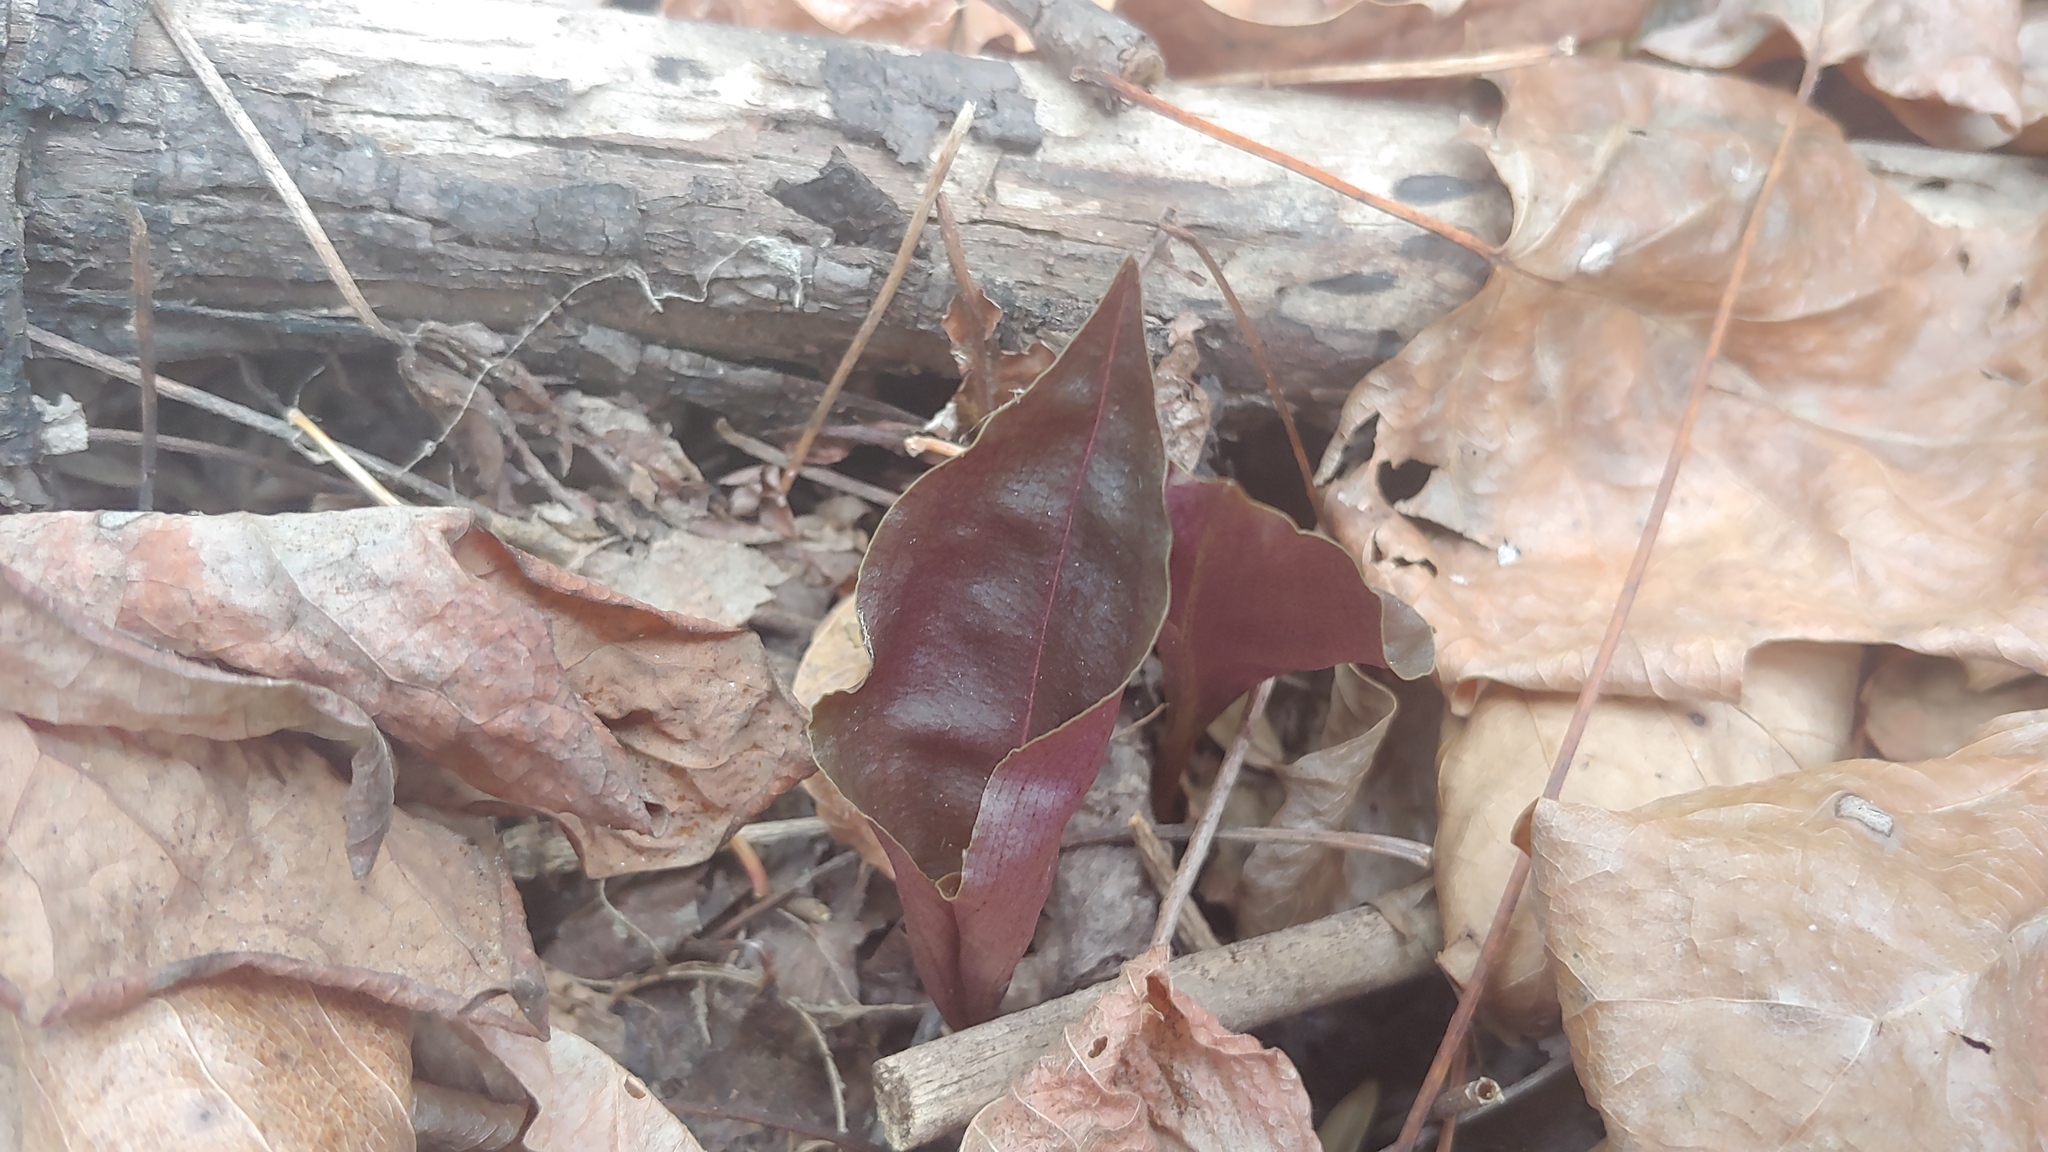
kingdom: Plantae
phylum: Tracheophyta
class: Liliopsida
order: Asparagales
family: Orchidaceae
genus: Tipularia
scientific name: Tipularia discolor
